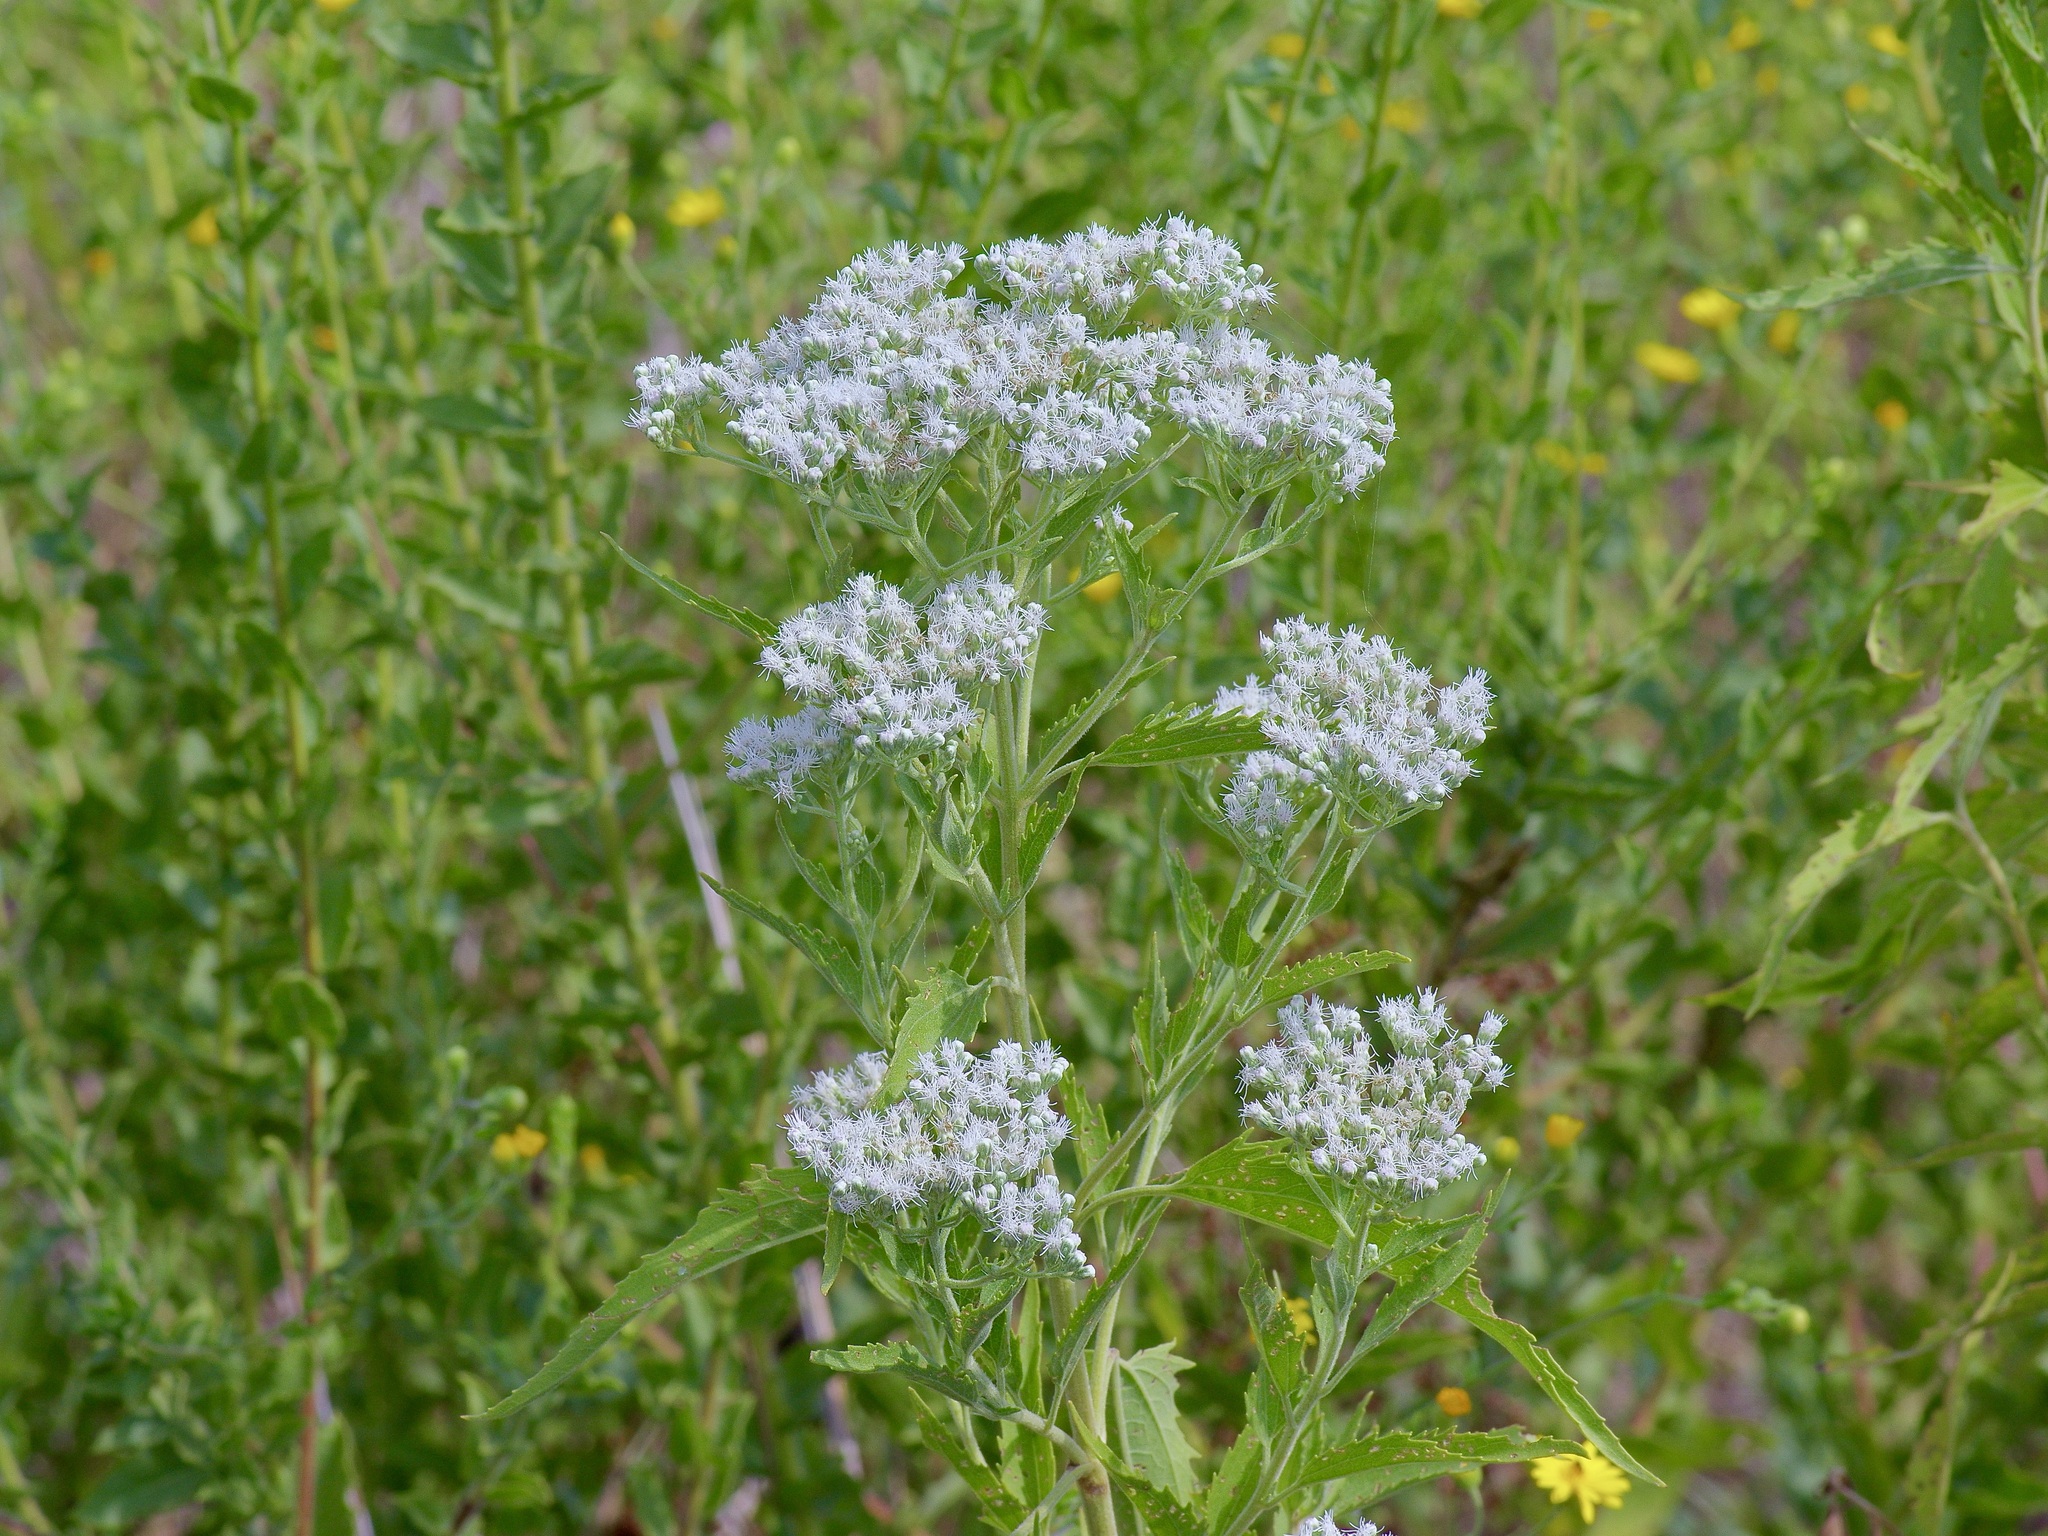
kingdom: Plantae
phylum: Tracheophyta
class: Magnoliopsida
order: Asterales
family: Asteraceae
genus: Eupatorium
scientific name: Eupatorium serotinum
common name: Late boneset
